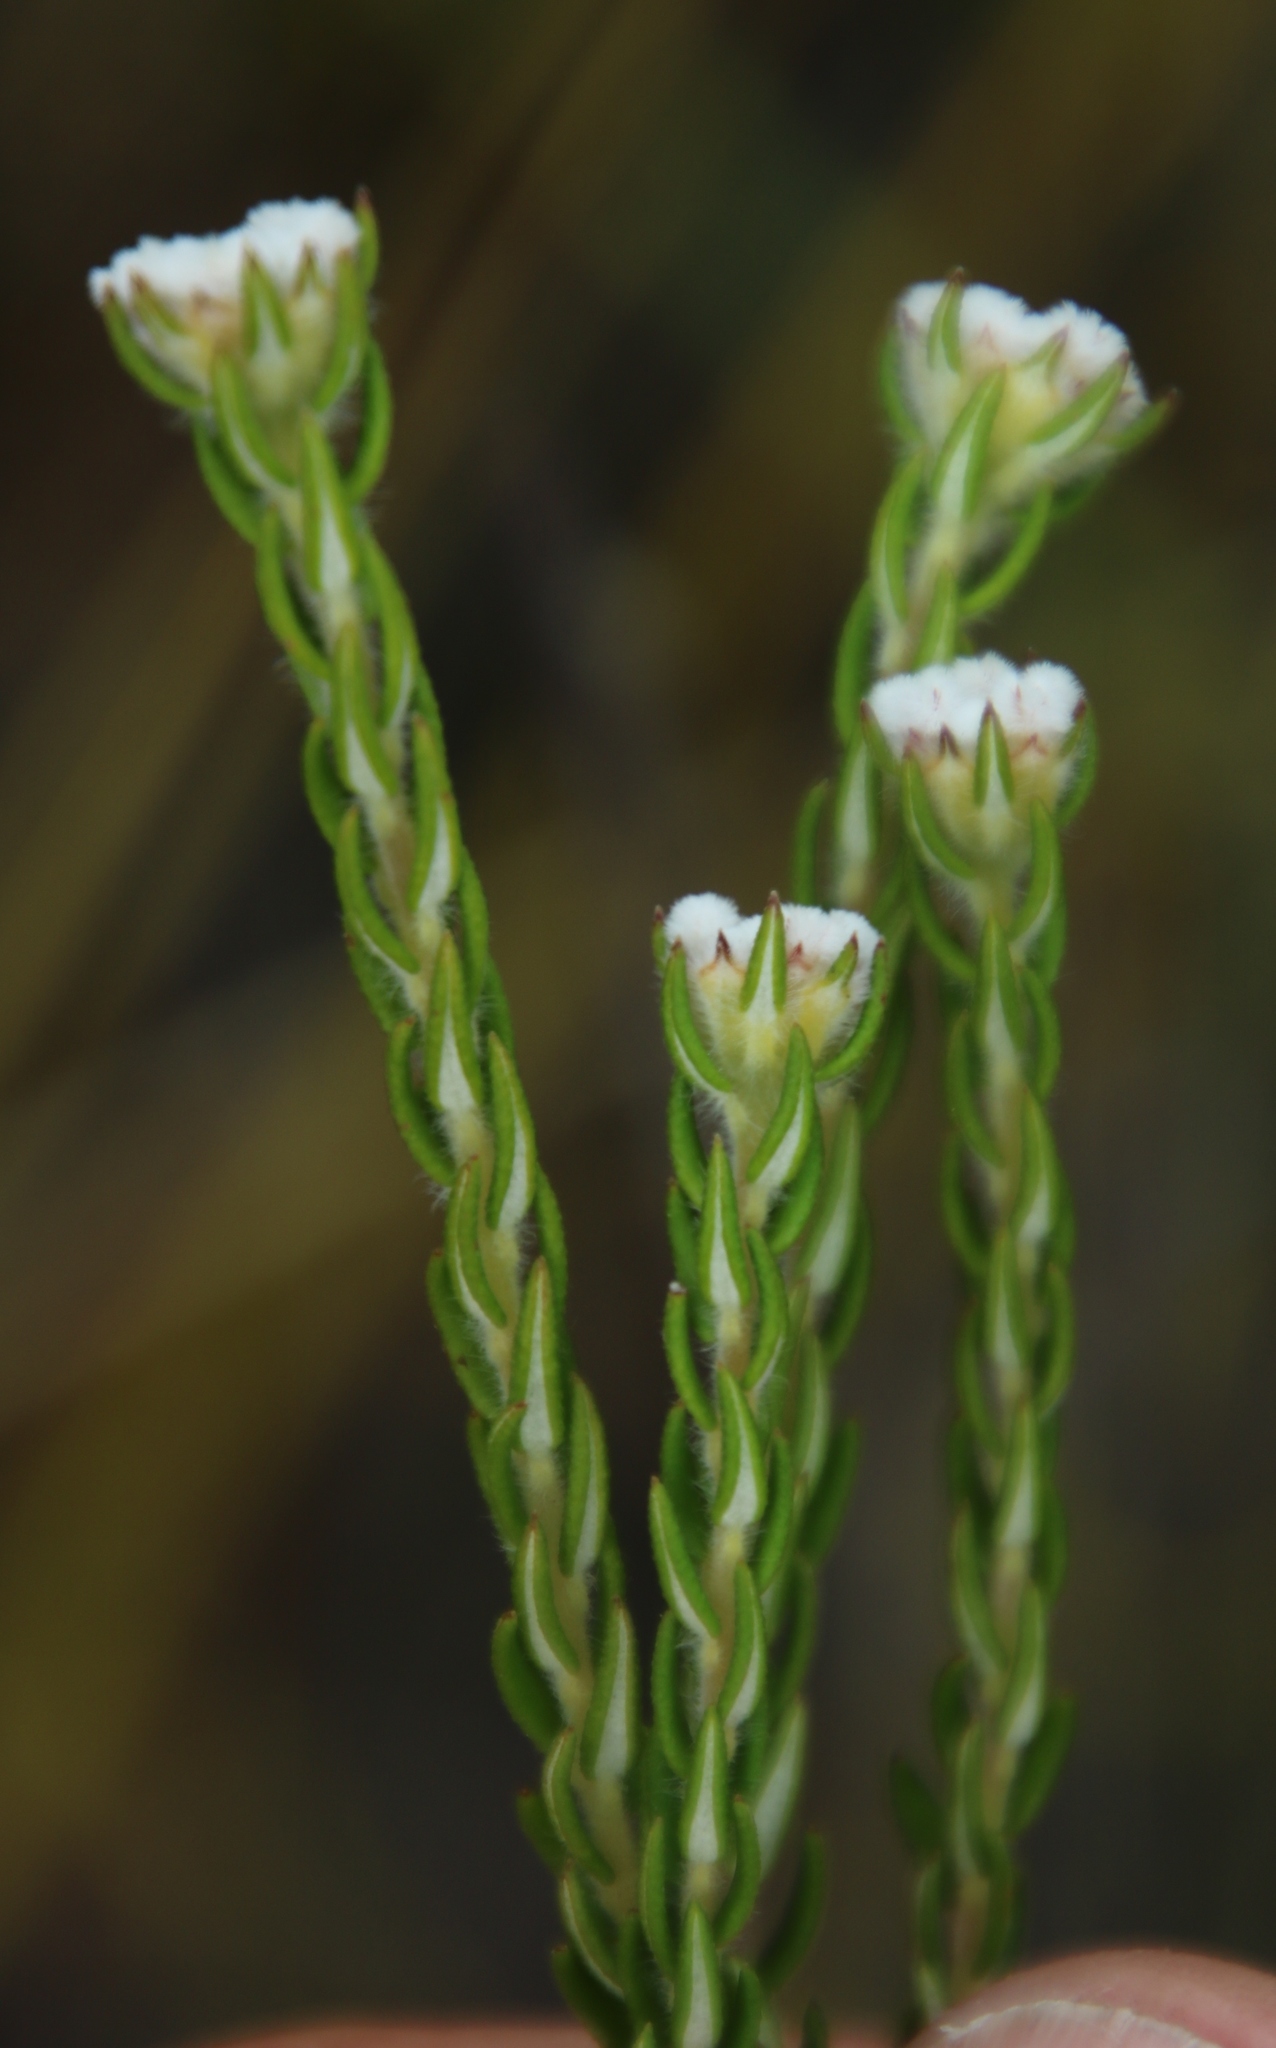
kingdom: Plantae
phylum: Tracheophyta
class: Magnoliopsida
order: Rosales
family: Rhamnaceae
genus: Phylica
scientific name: Phylica atrata
